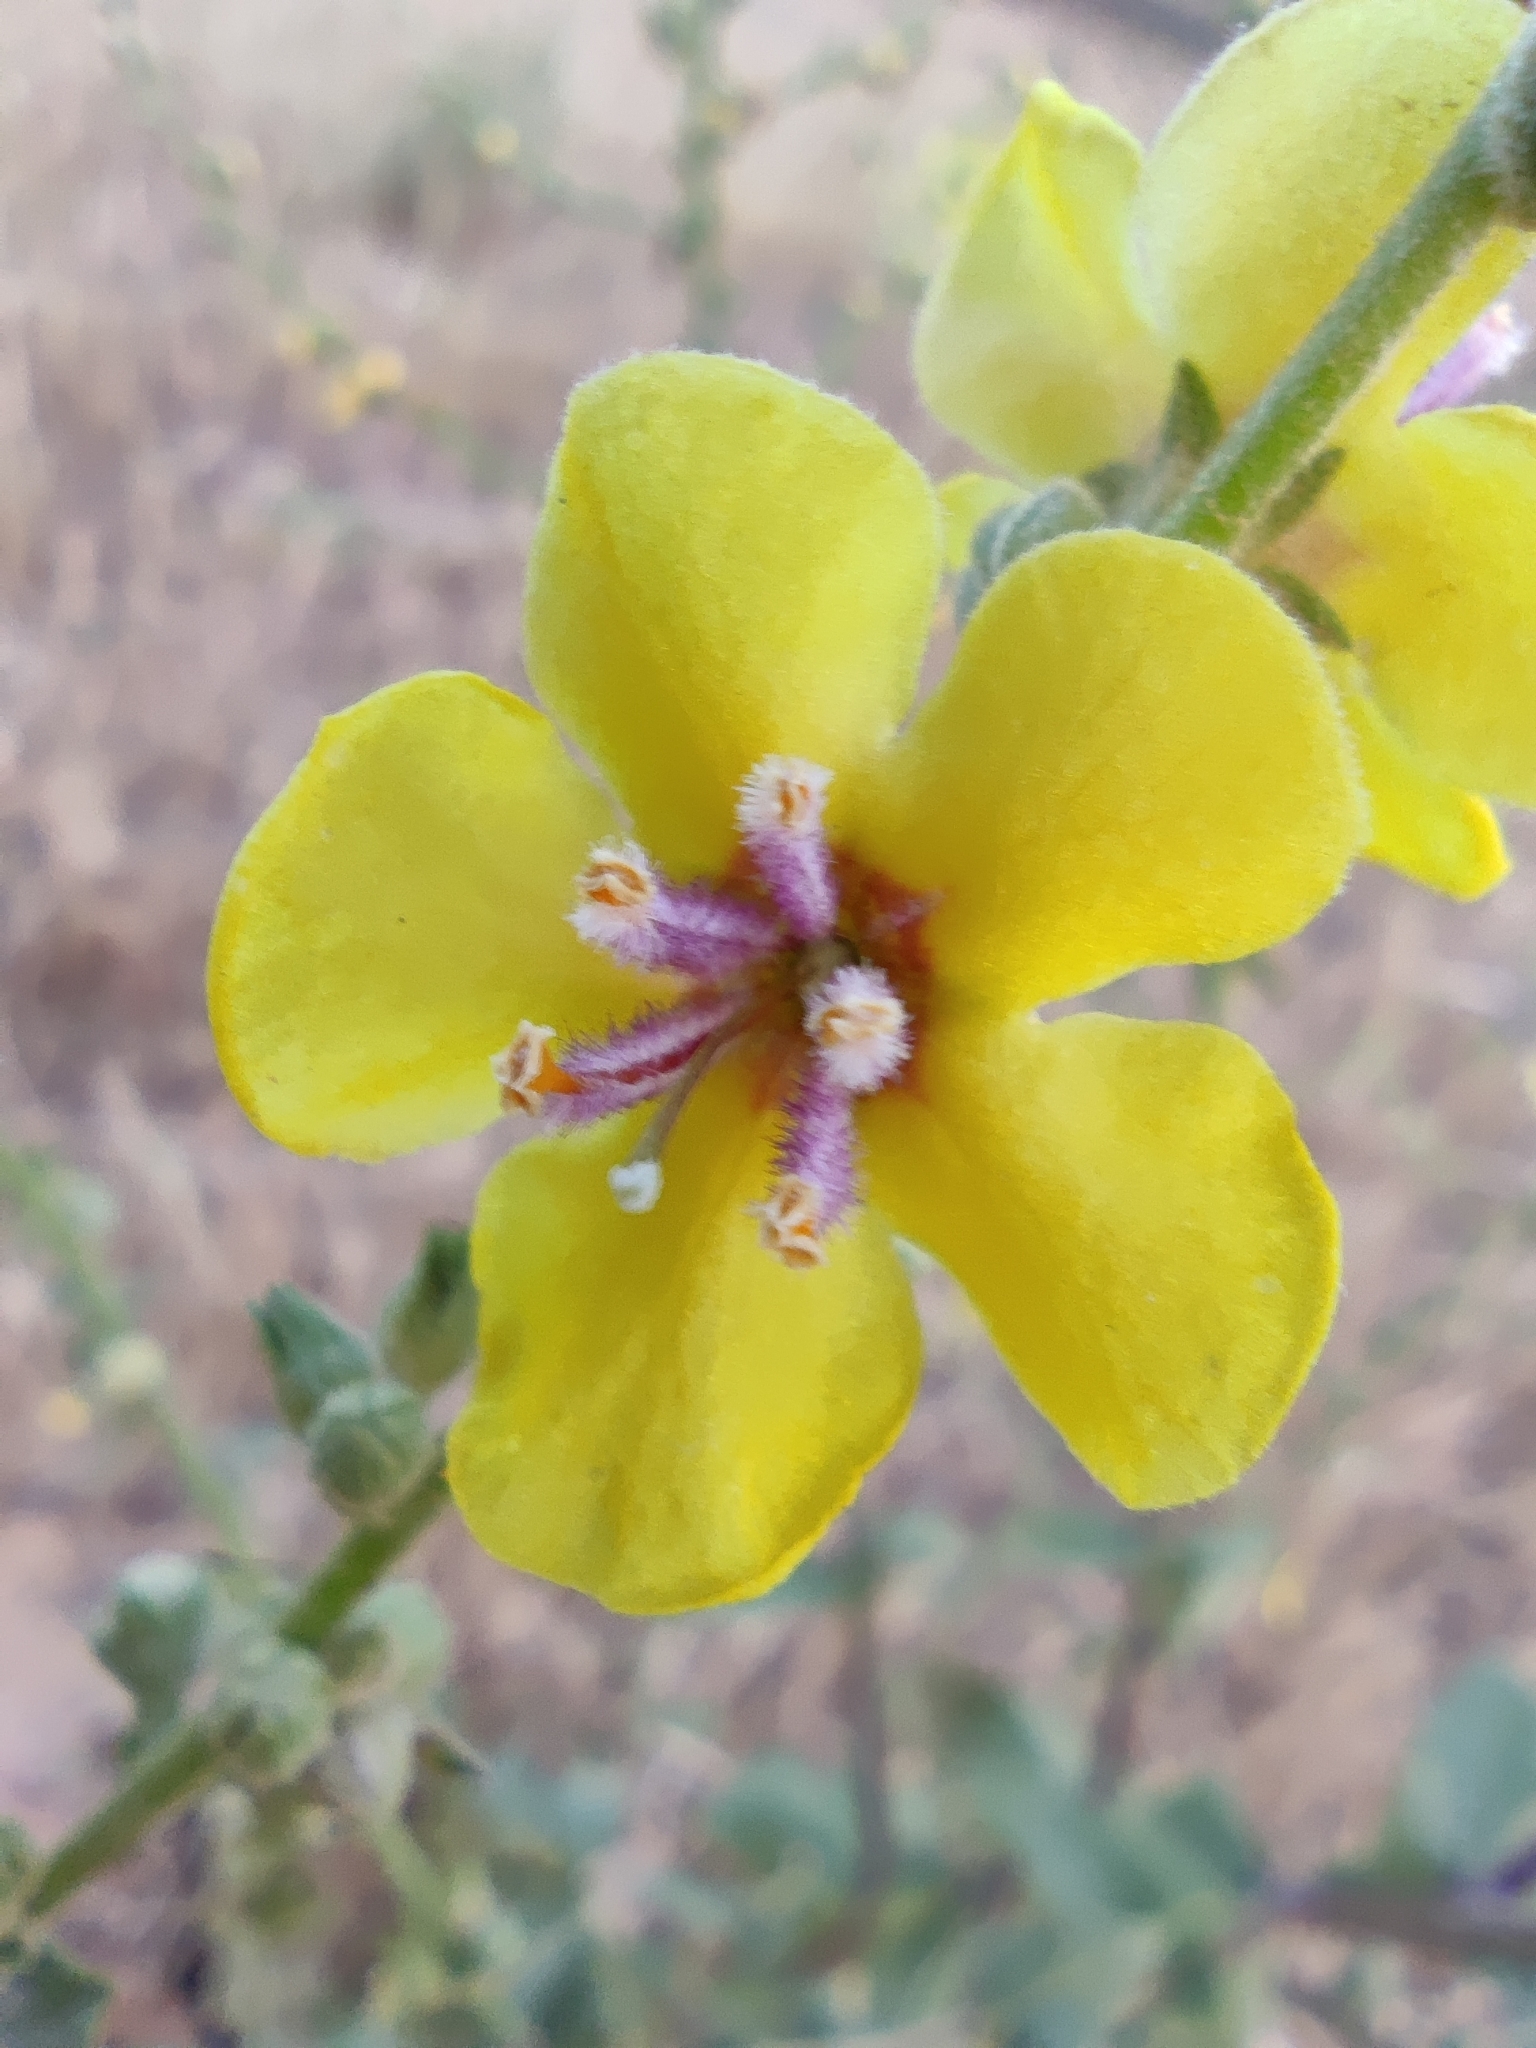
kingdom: Plantae
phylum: Tracheophyta
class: Magnoliopsida
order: Lamiales
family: Scrophulariaceae
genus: Verbascum
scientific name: Verbascum sinuatum
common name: Wavyleaf mullein
